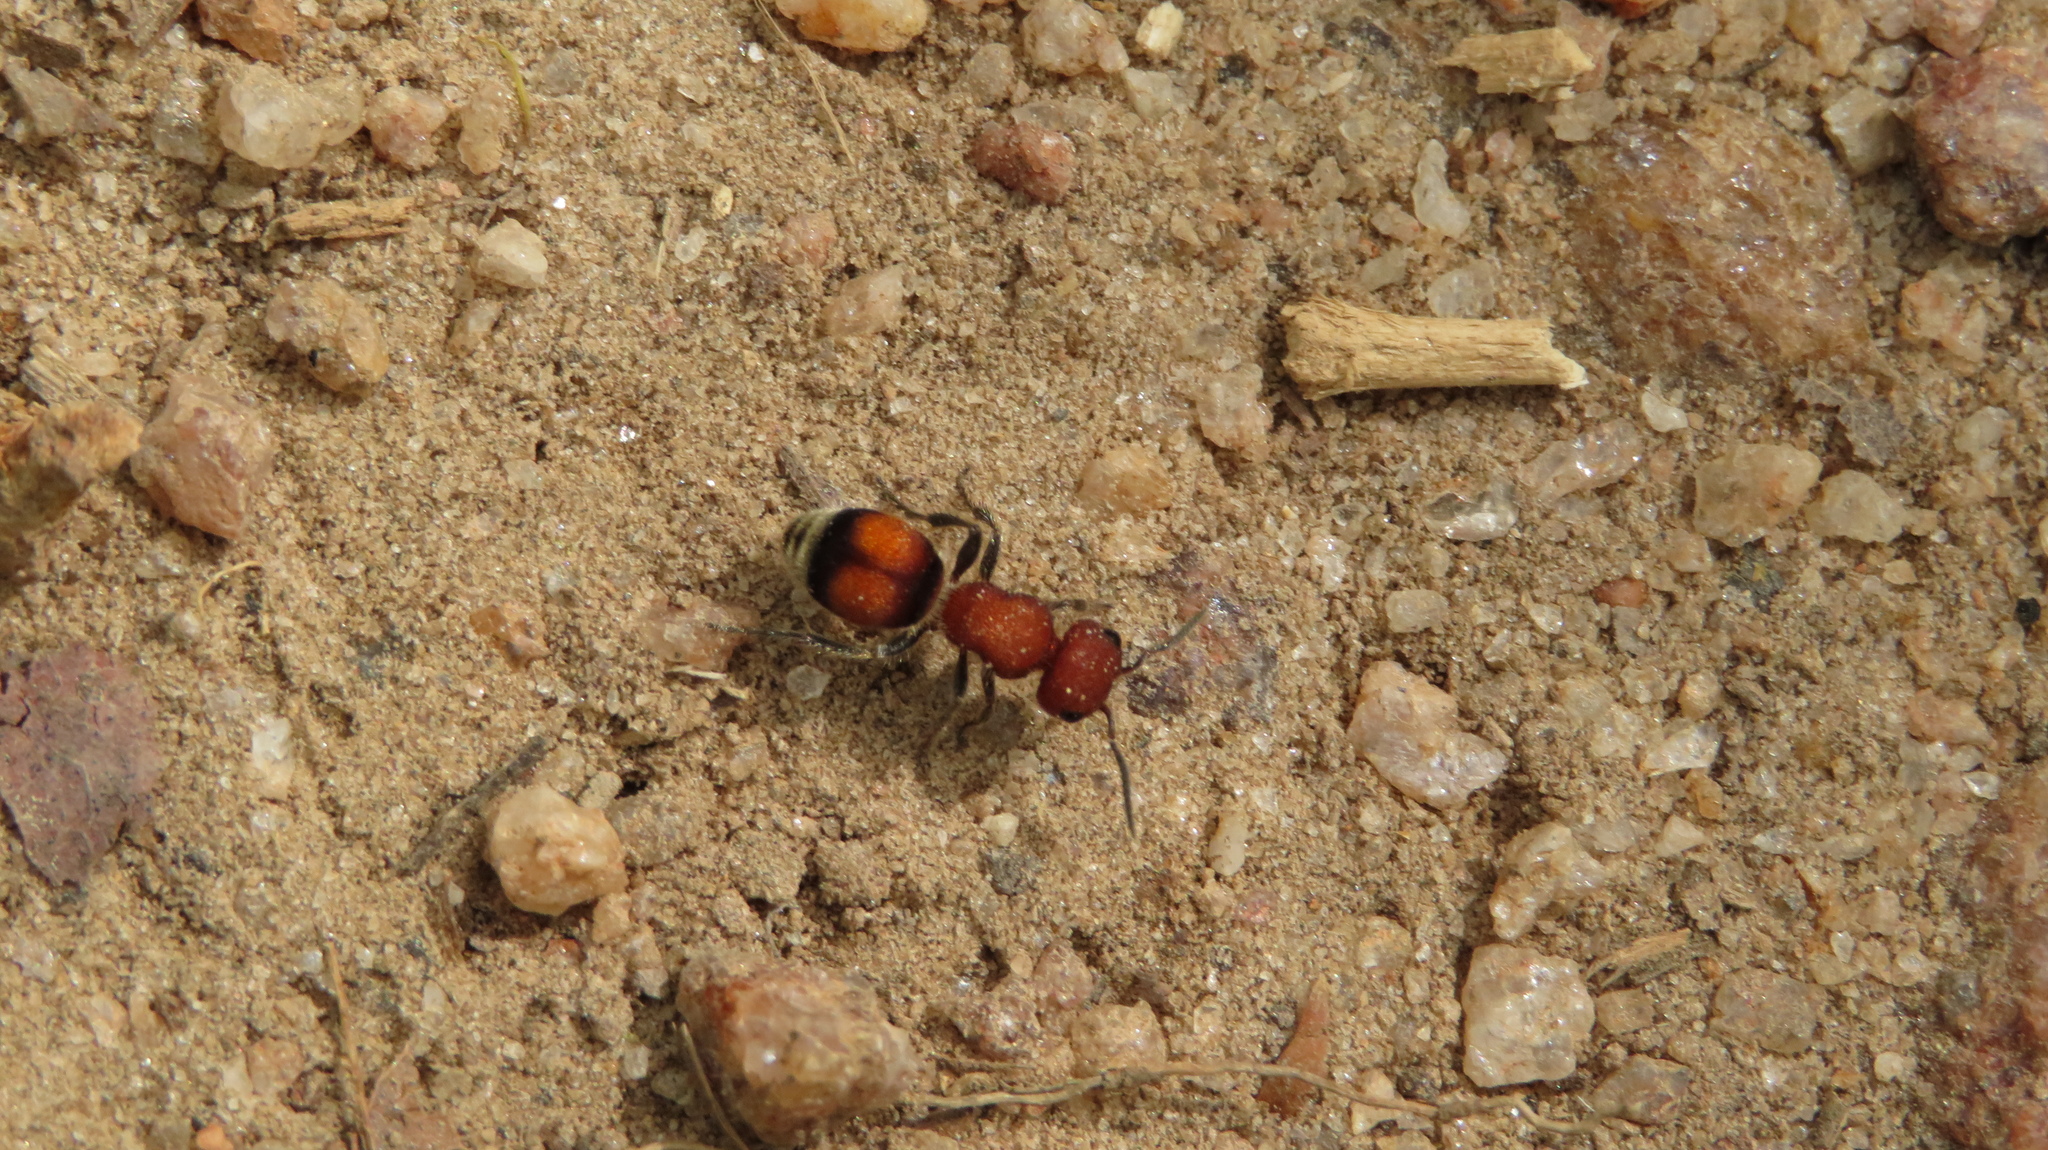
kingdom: Animalia
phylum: Arthropoda
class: Insecta
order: Hymenoptera
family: Mutillidae
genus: Pseudomethoca
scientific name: Pseudomethoca
